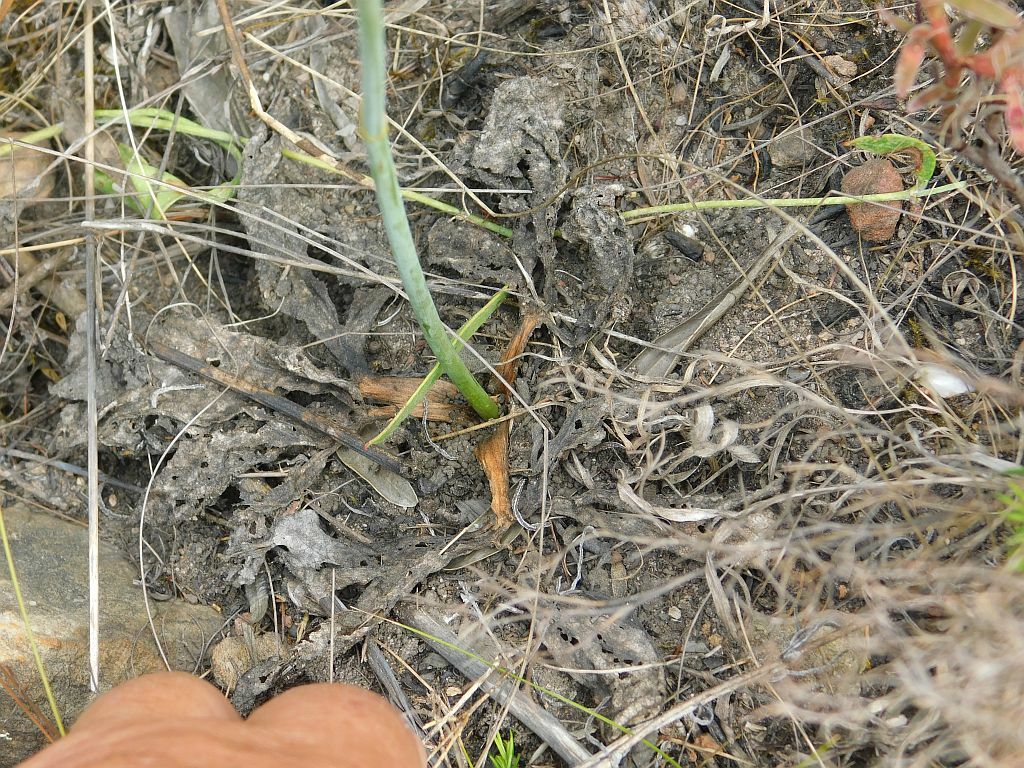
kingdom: Plantae
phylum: Tracheophyta
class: Magnoliopsida
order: Apiales
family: Apiaceae
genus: Lichtensteinia
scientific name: Lichtensteinia trifida
